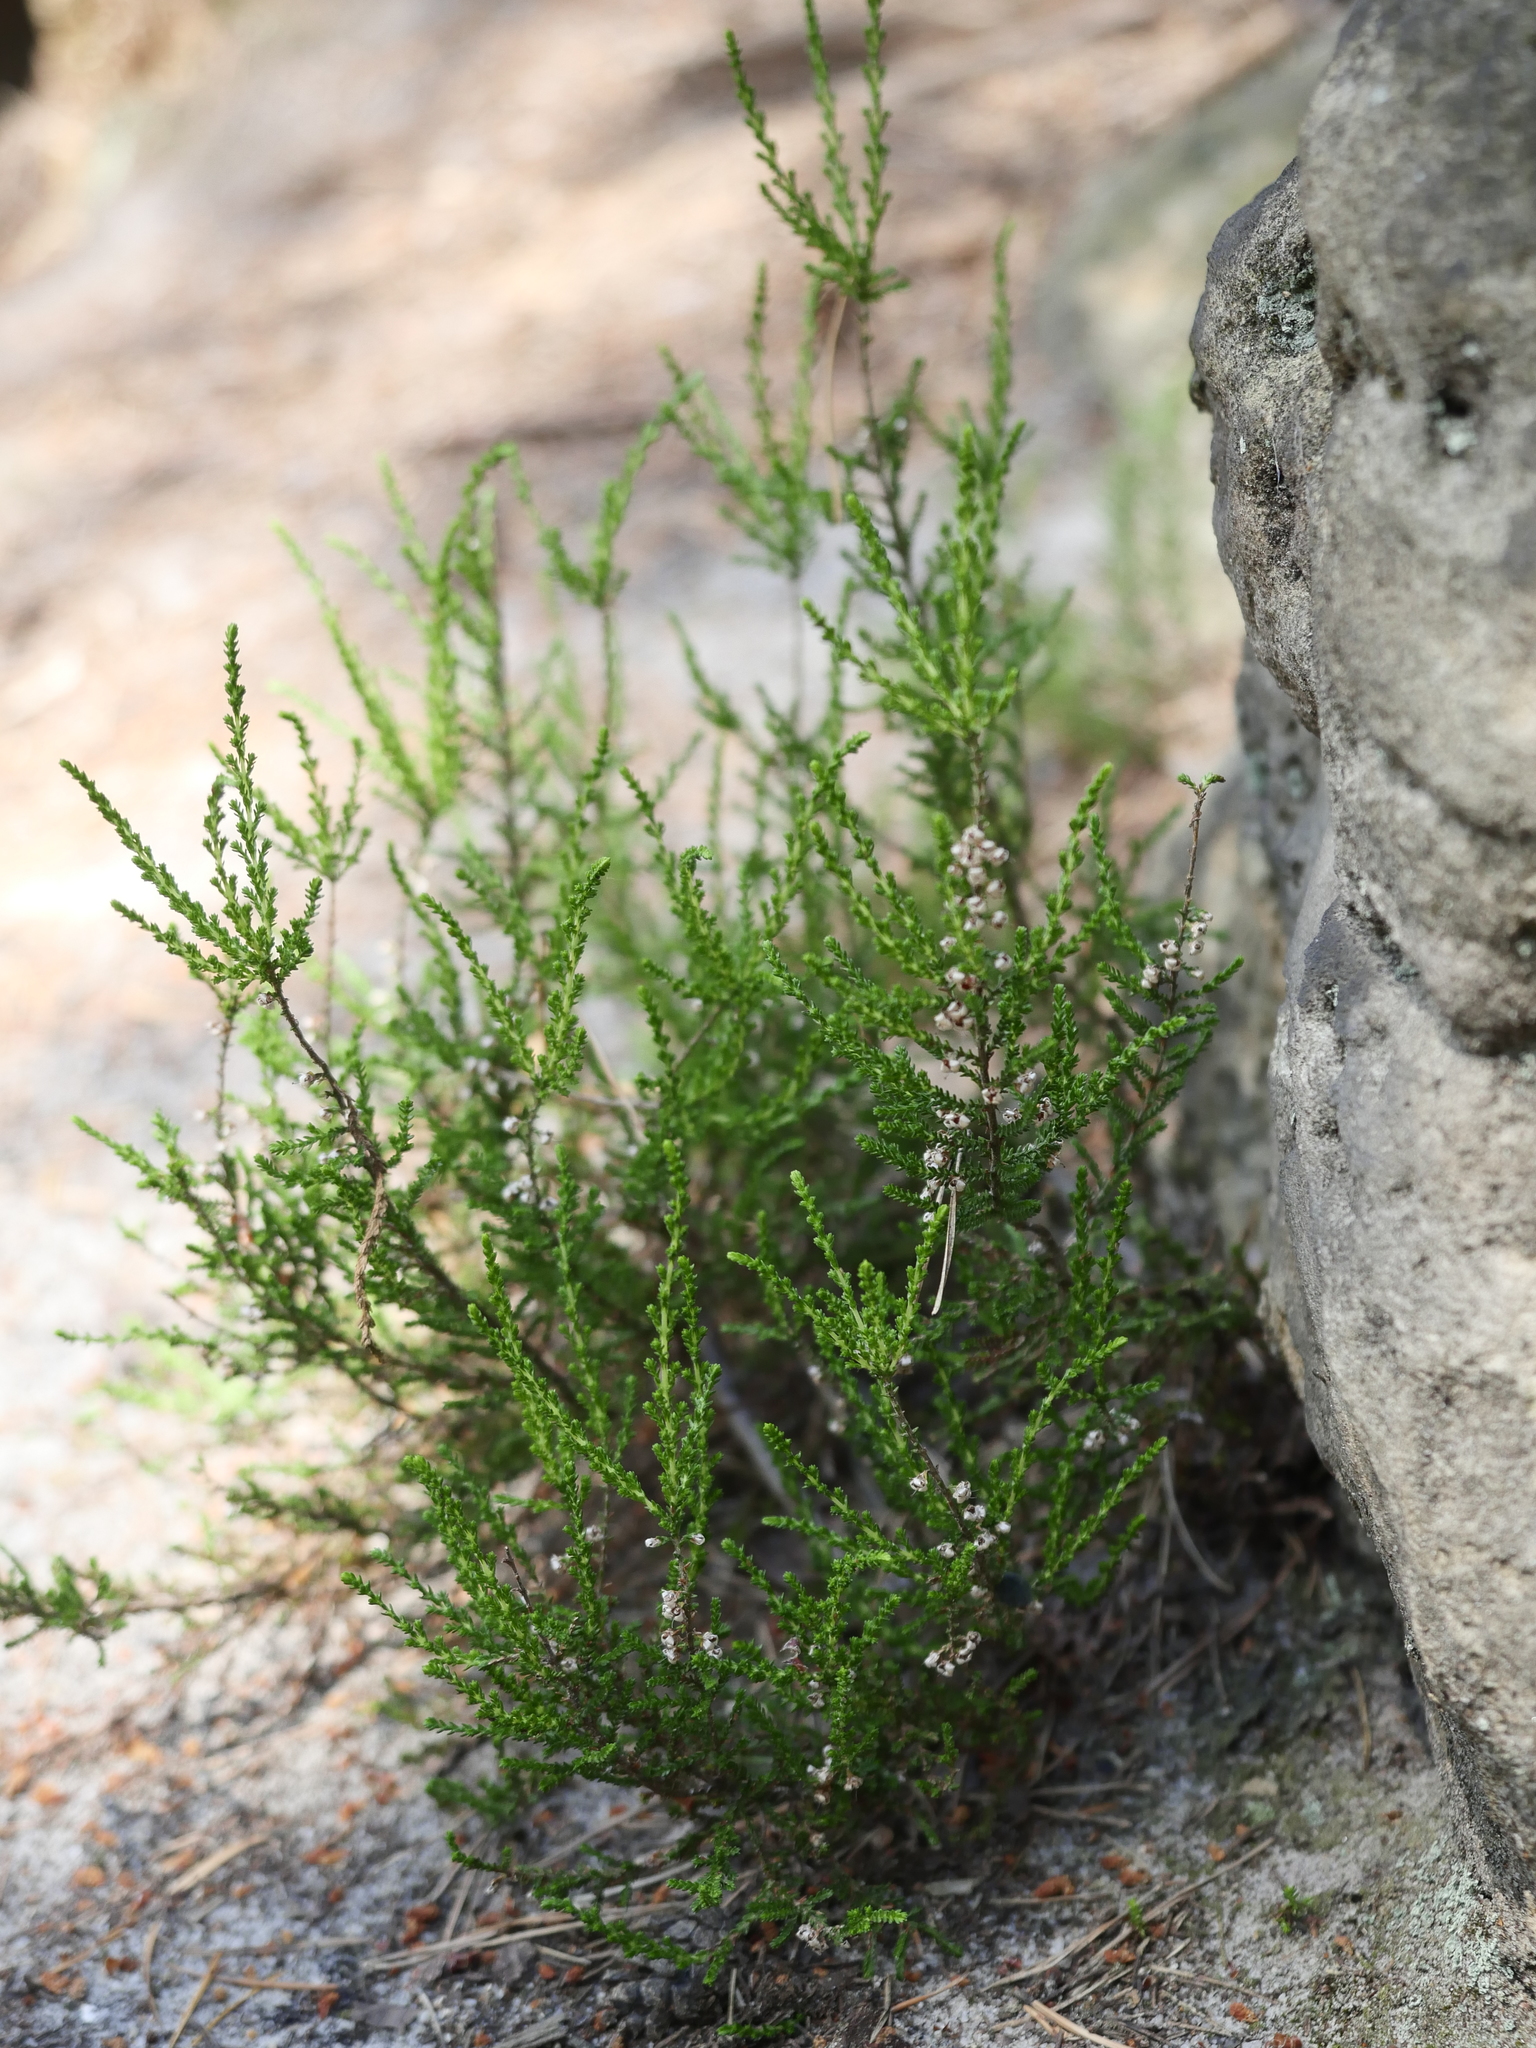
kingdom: Plantae
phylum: Tracheophyta
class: Magnoliopsida
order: Ericales
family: Ericaceae
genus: Calluna
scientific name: Calluna vulgaris
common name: Heather
